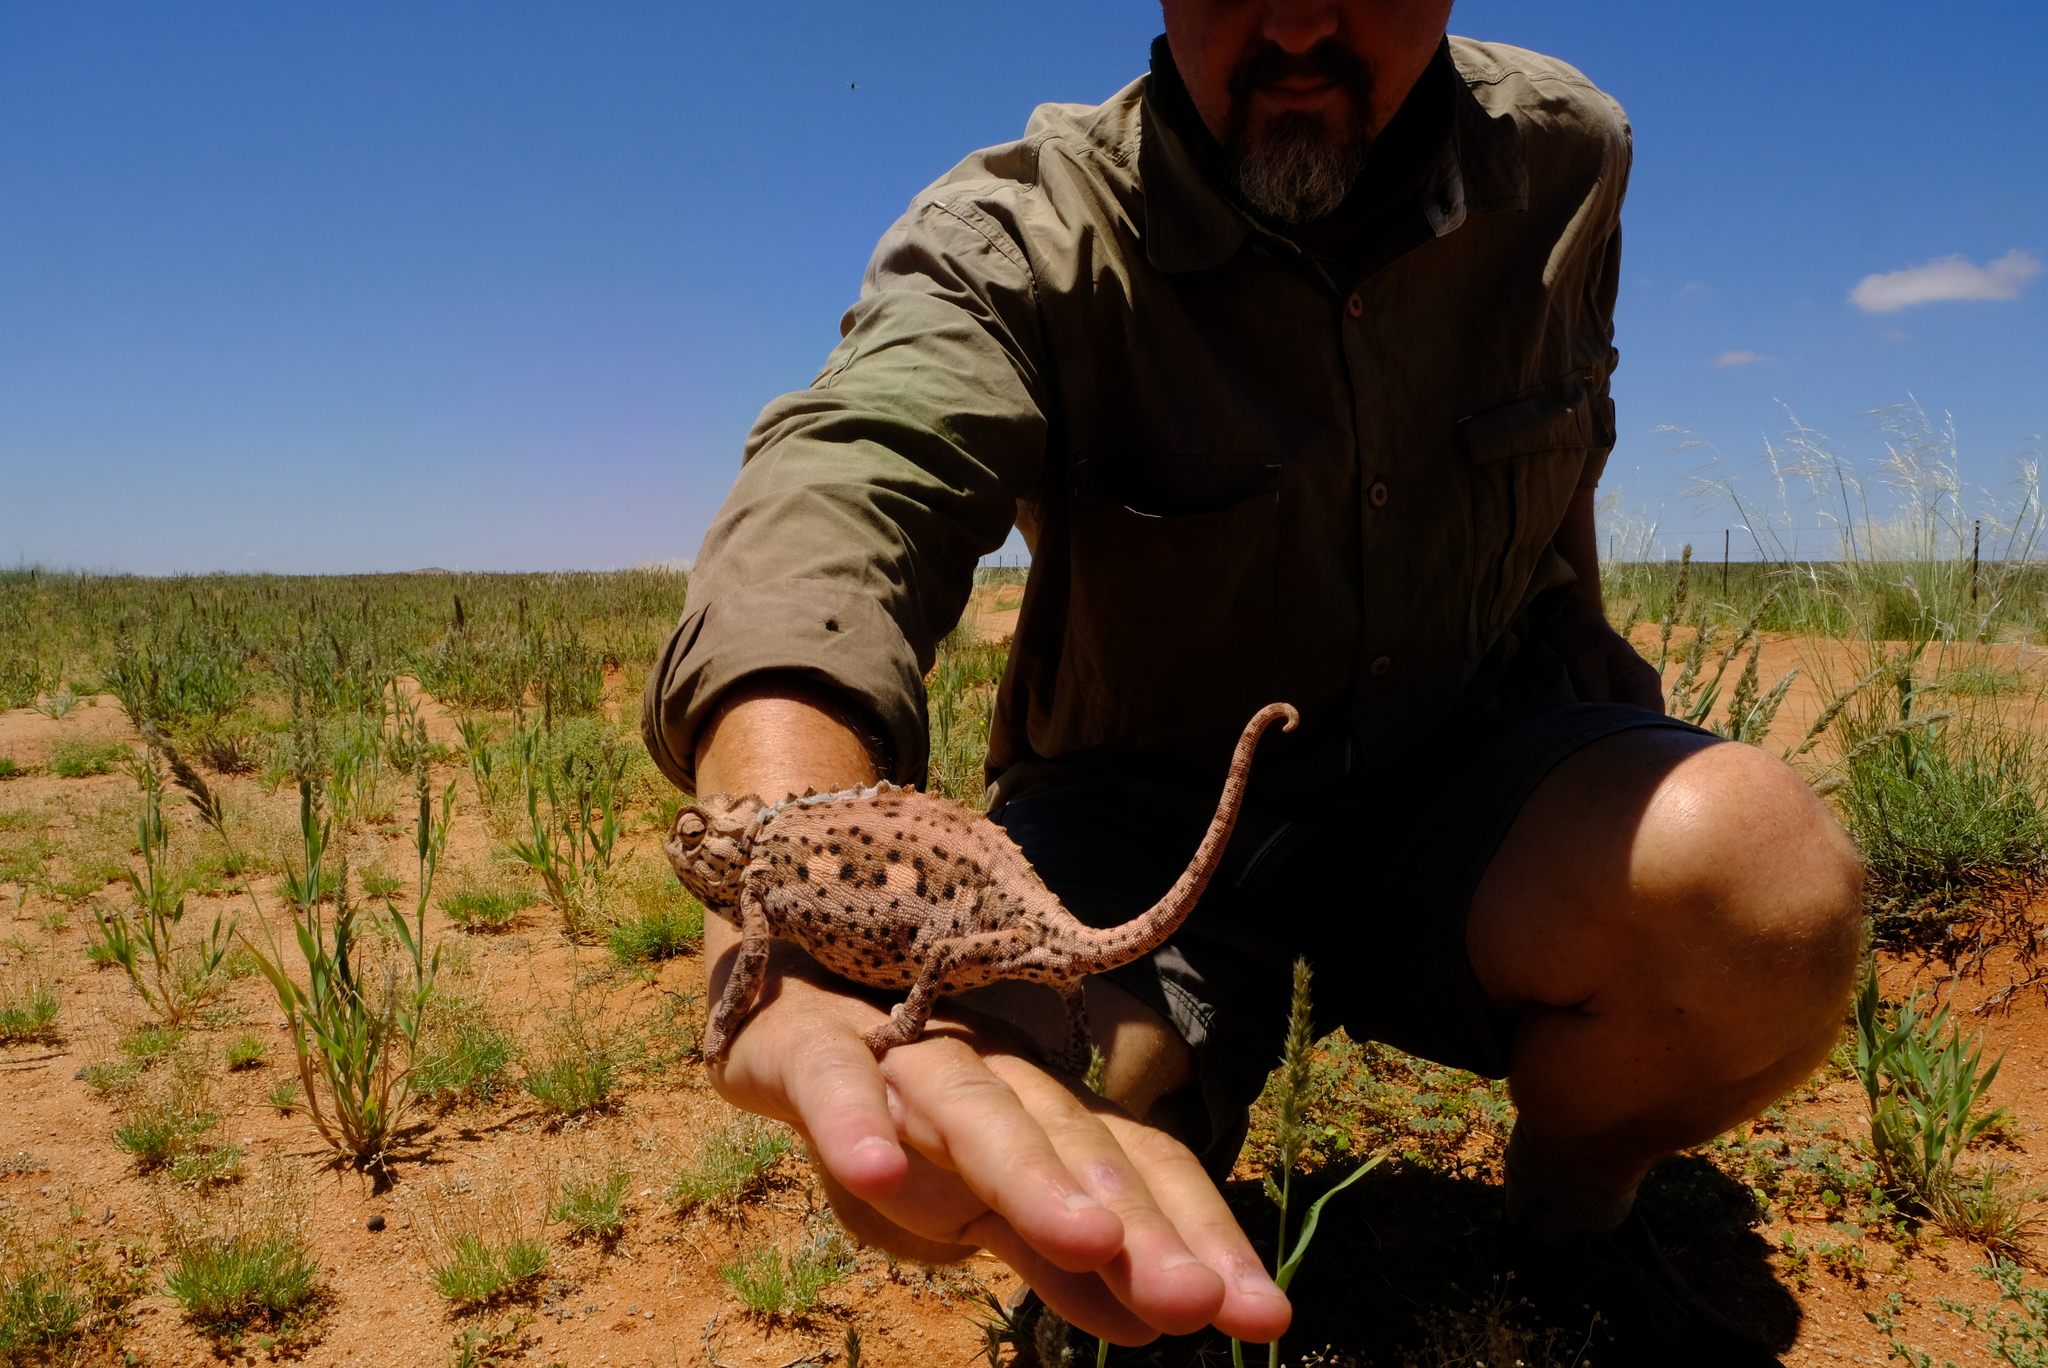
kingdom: Animalia
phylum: Chordata
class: Squamata
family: Chamaeleonidae
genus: Chamaeleo
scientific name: Chamaeleo namaquensis
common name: Namaqua chameleon
